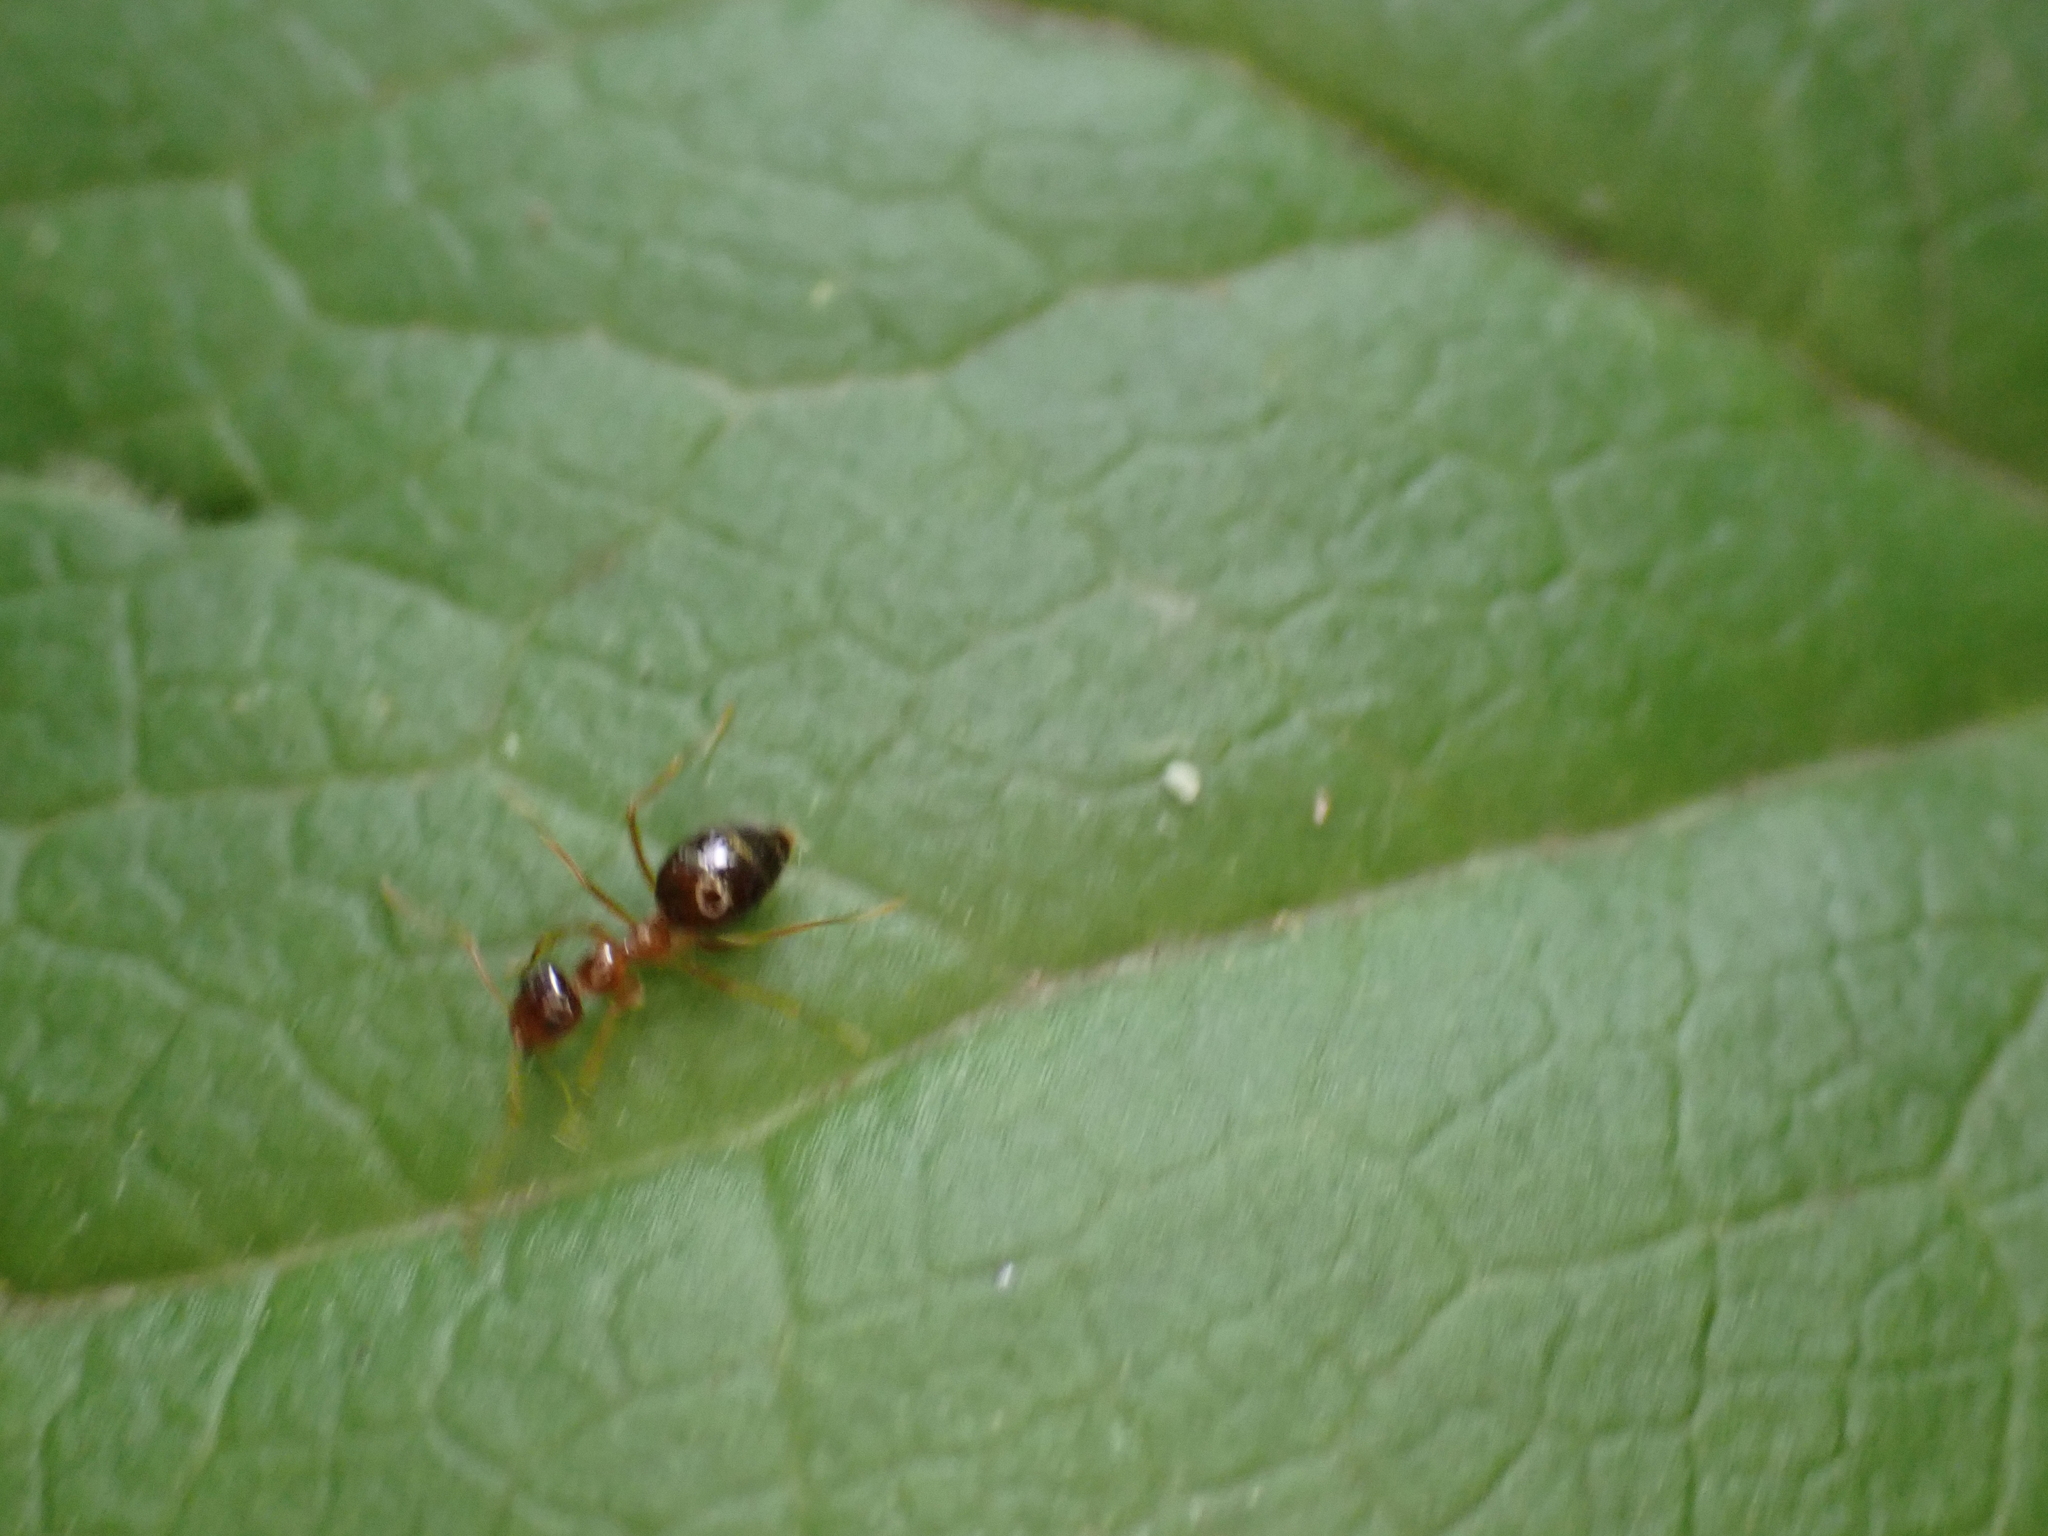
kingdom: Animalia
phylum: Arthropoda
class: Insecta
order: Hymenoptera
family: Formicidae
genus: Prenolepis
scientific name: Prenolepis imparis
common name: Small honey ant
